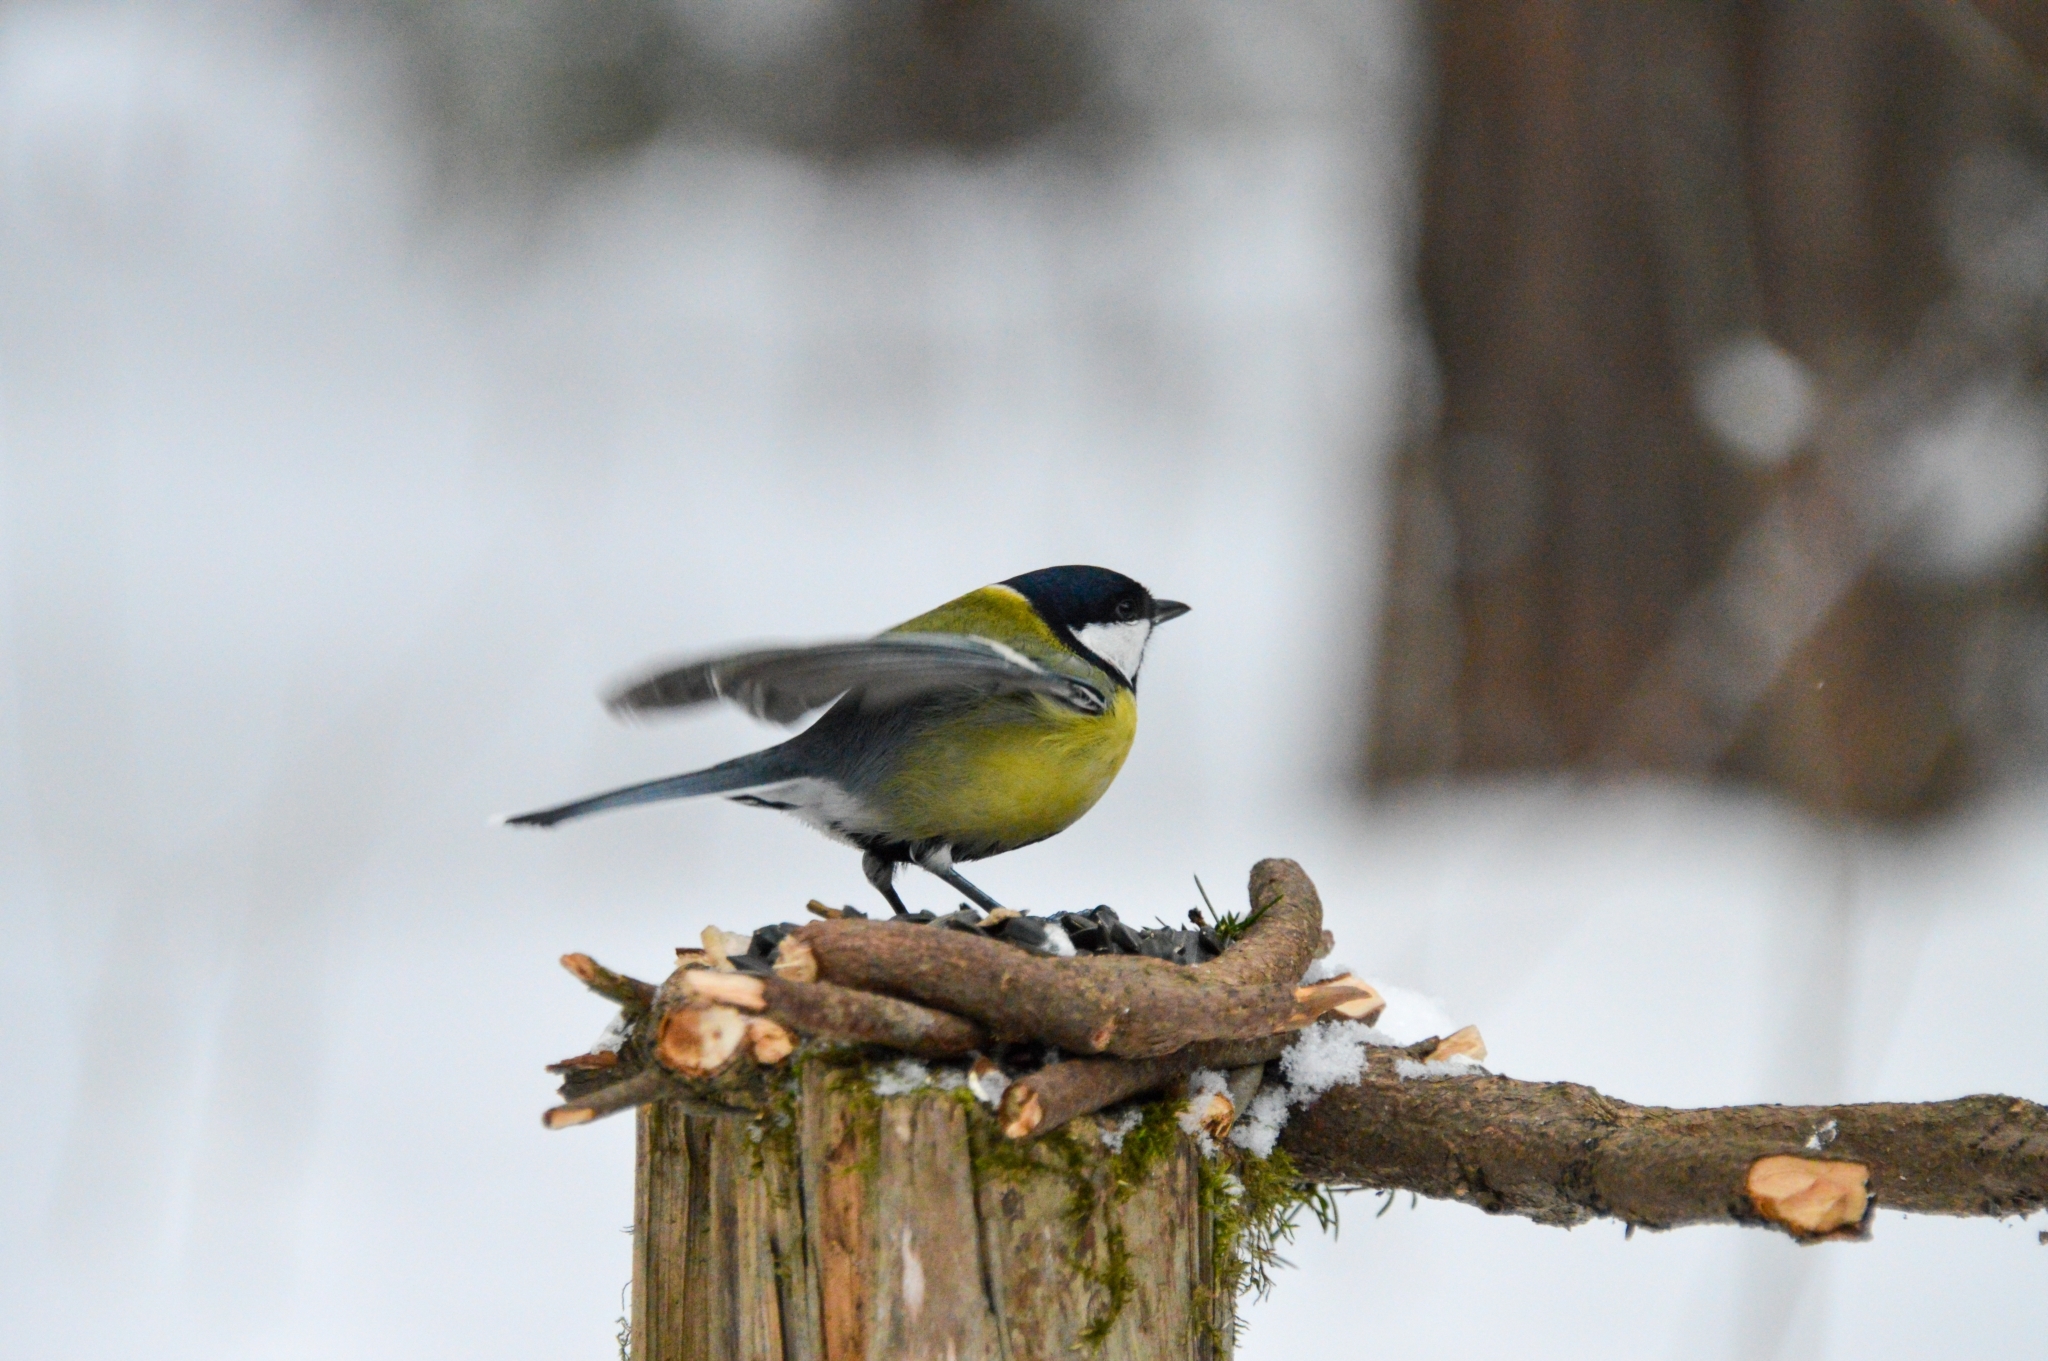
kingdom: Animalia
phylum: Chordata
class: Aves
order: Passeriformes
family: Paridae
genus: Parus
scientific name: Parus major
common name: Great tit
